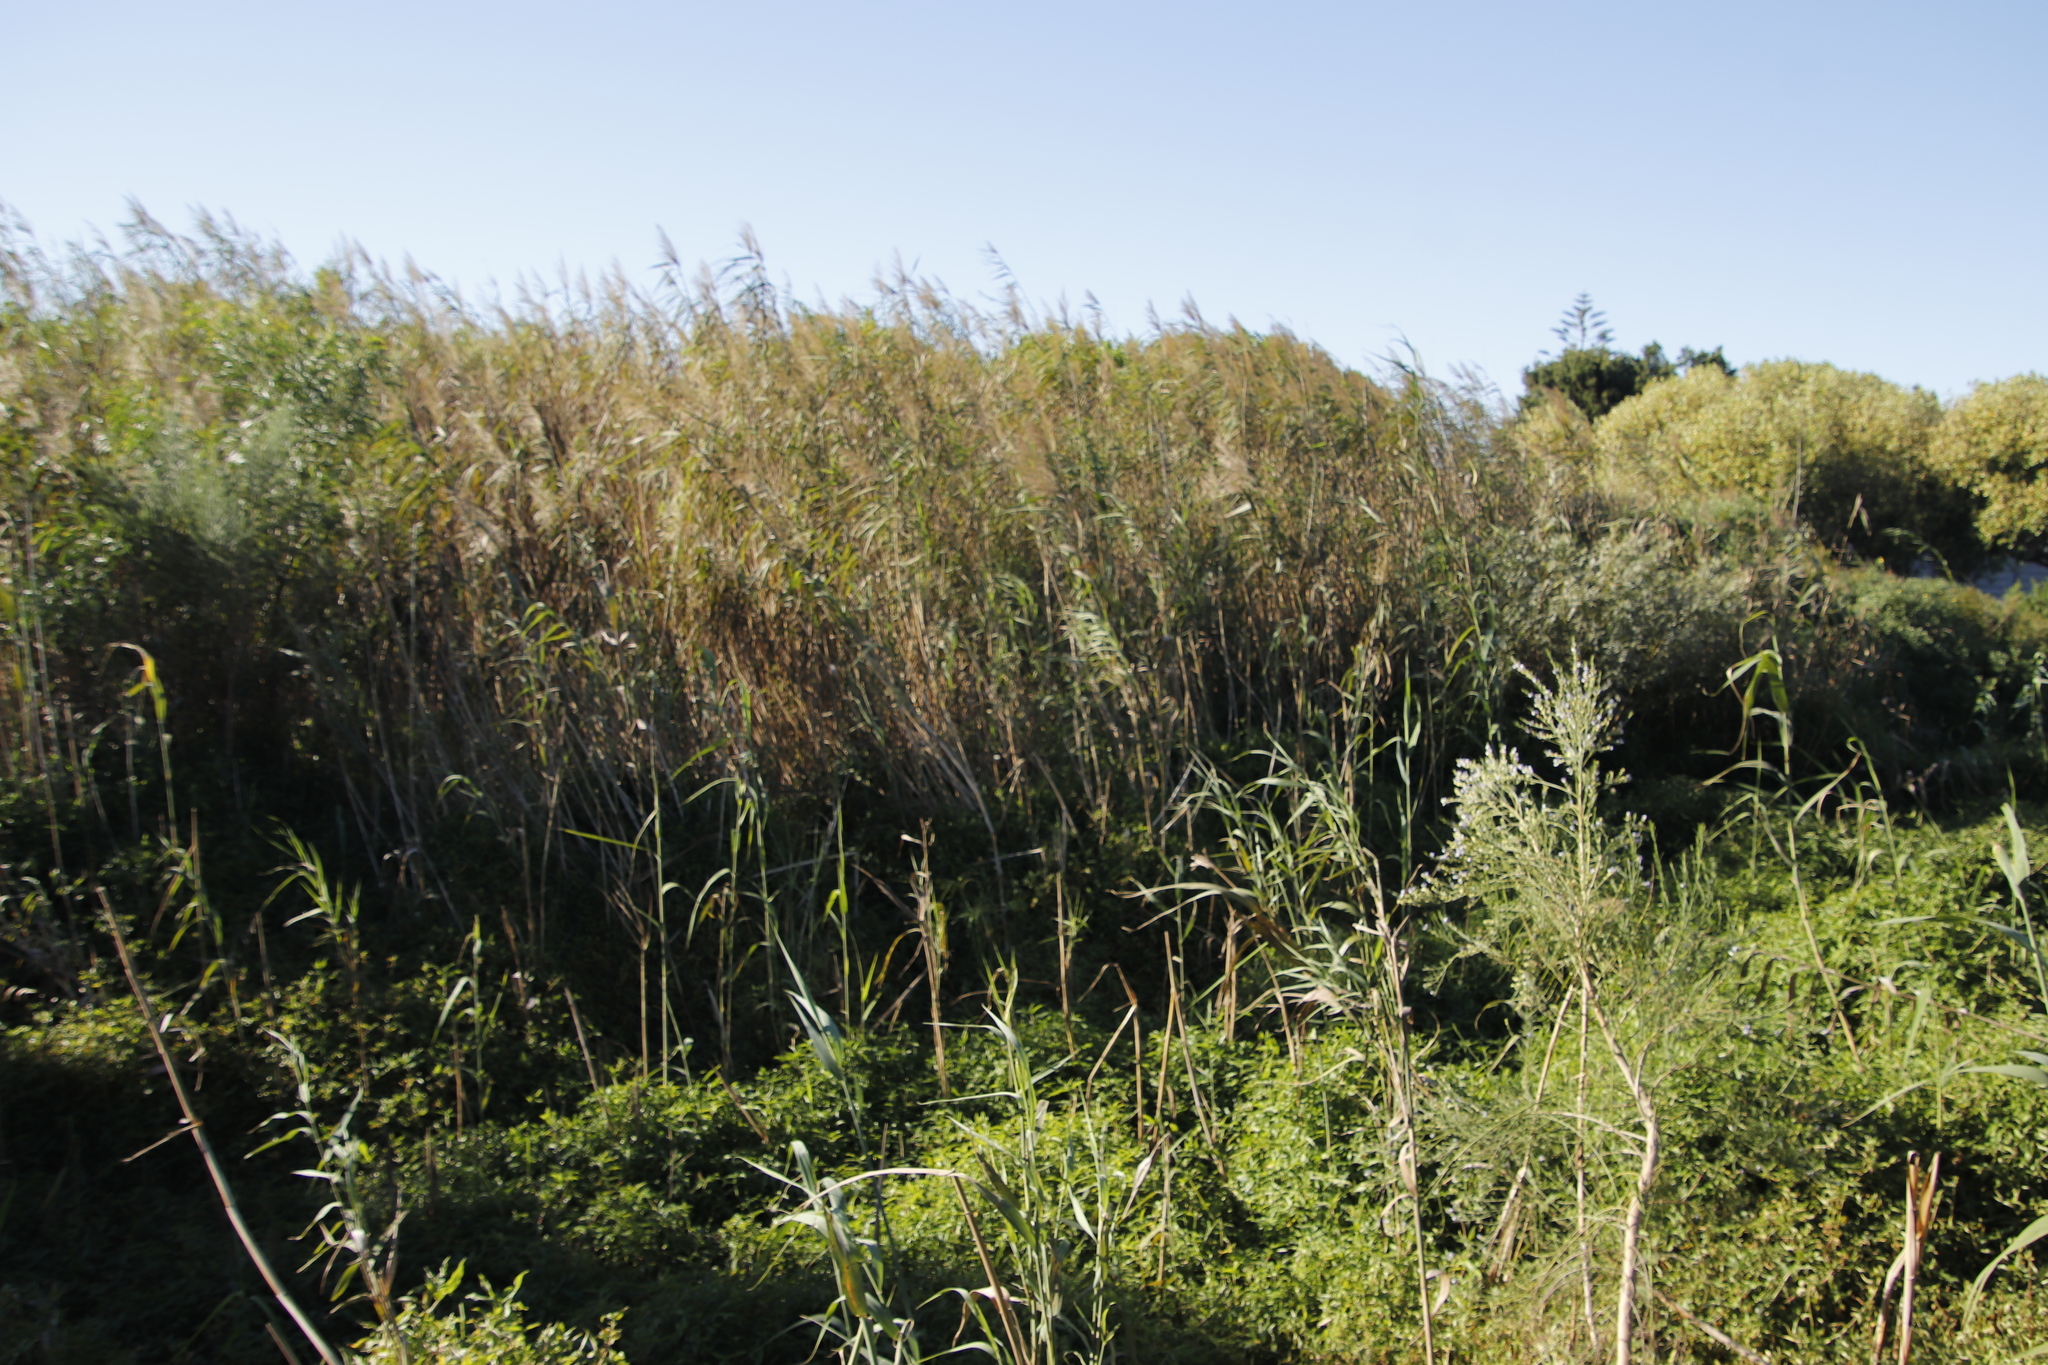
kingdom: Plantae
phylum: Tracheophyta
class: Liliopsida
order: Poales
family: Poaceae
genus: Phragmites
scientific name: Phragmites australis
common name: Common reed
